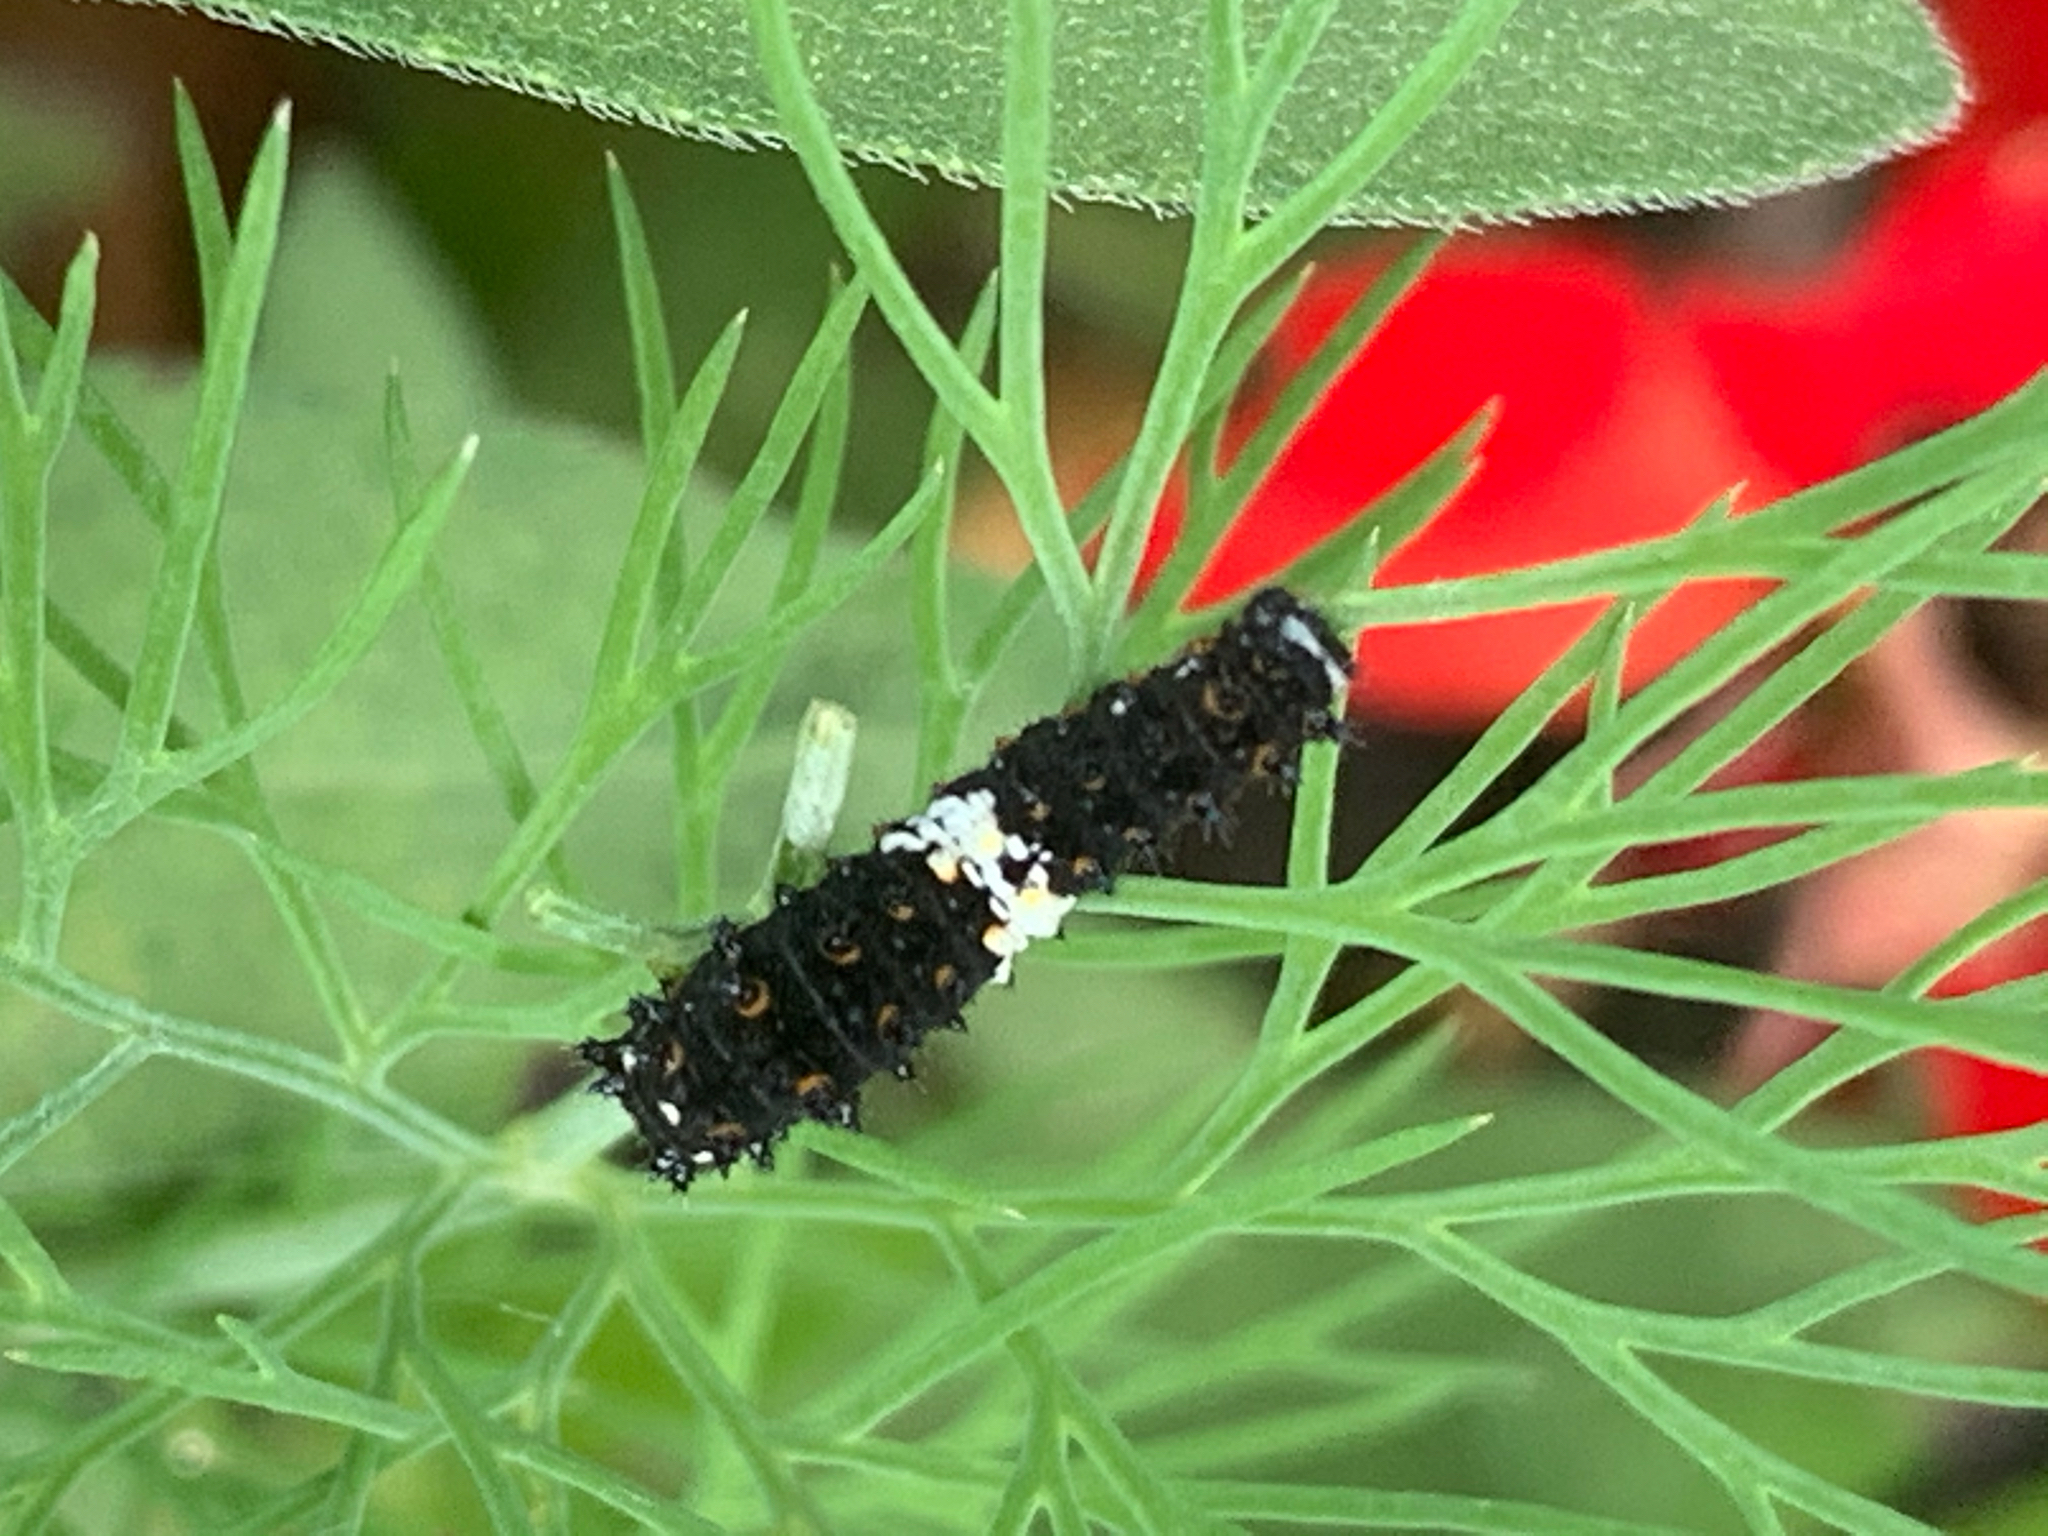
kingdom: Animalia
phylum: Arthropoda
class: Insecta
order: Lepidoptera
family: Papilionidae
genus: Papilio
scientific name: Papilio polyxenes
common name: Black swallowtail
